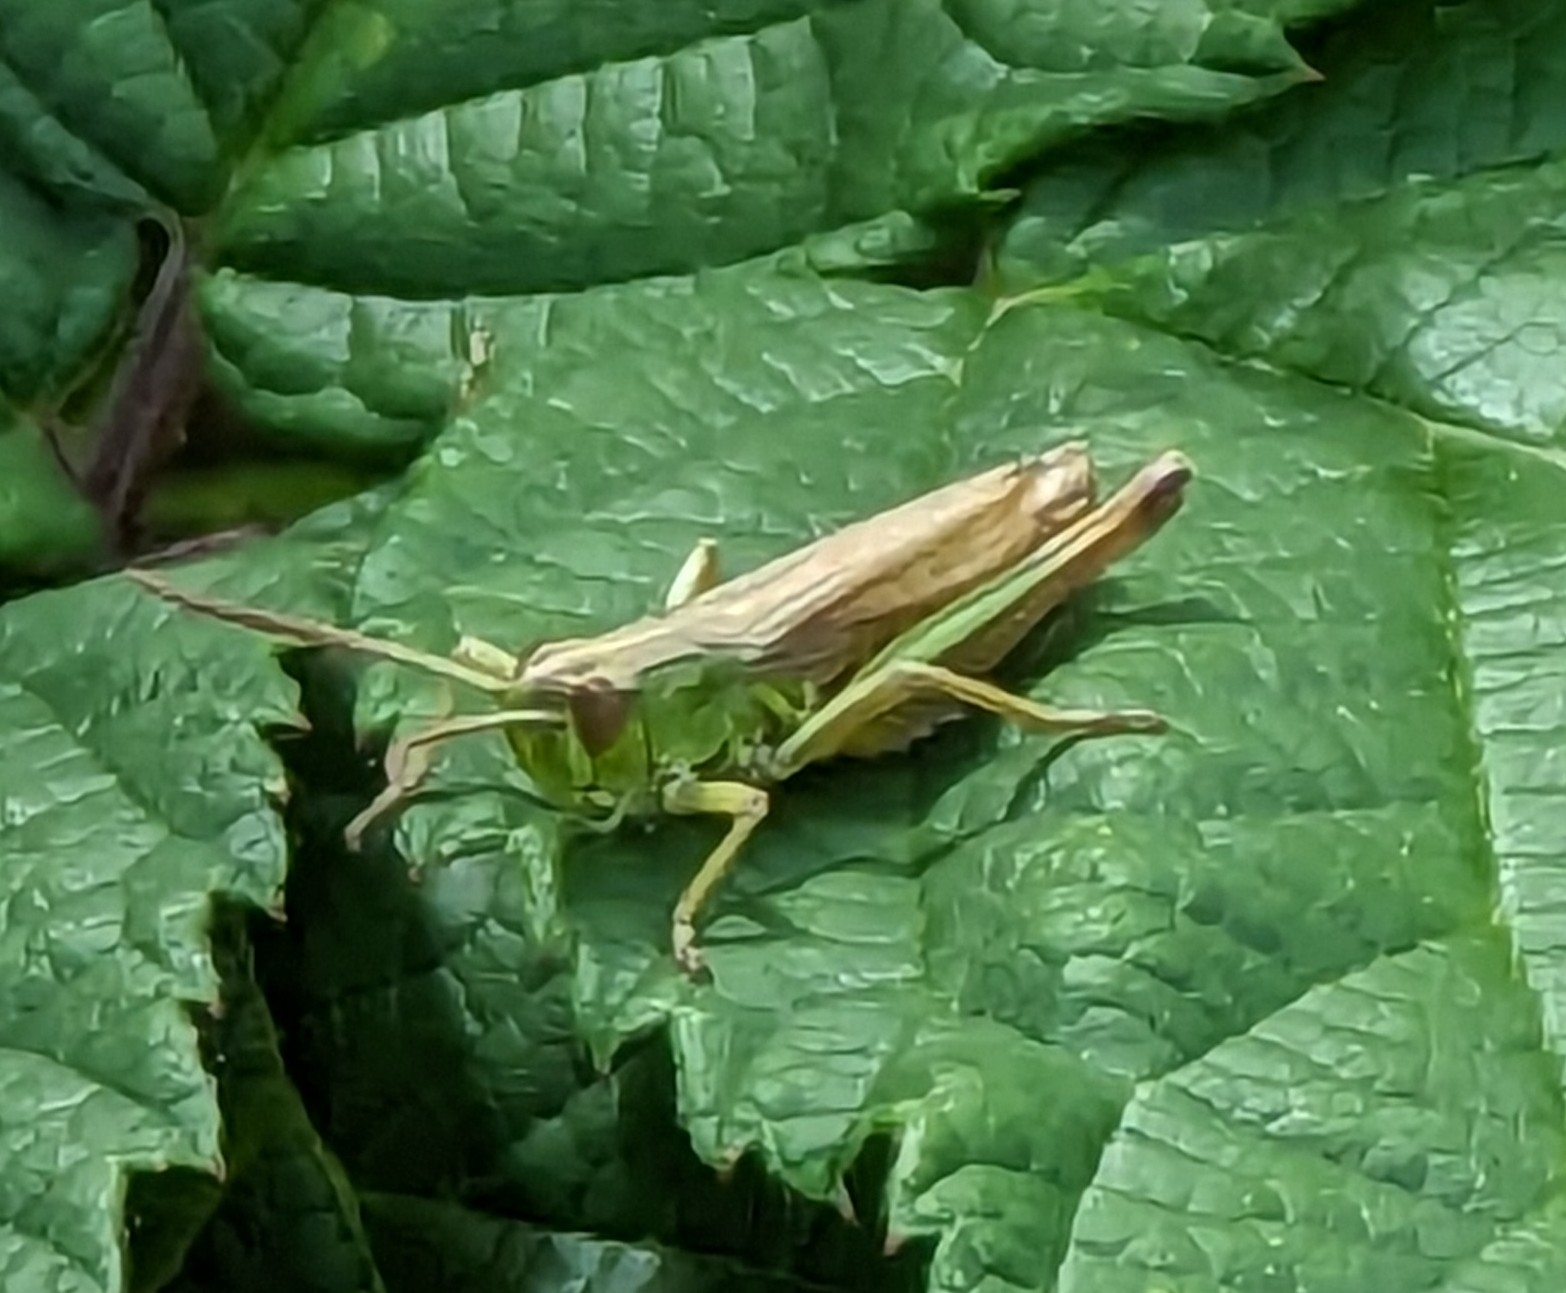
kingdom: Animalia
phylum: Arthropoda
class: Insecta
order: Orthoptera
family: Acrididae
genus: Pseudochorthippus
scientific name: Pseudochorthippus parallelus
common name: Meadow grasshopper
